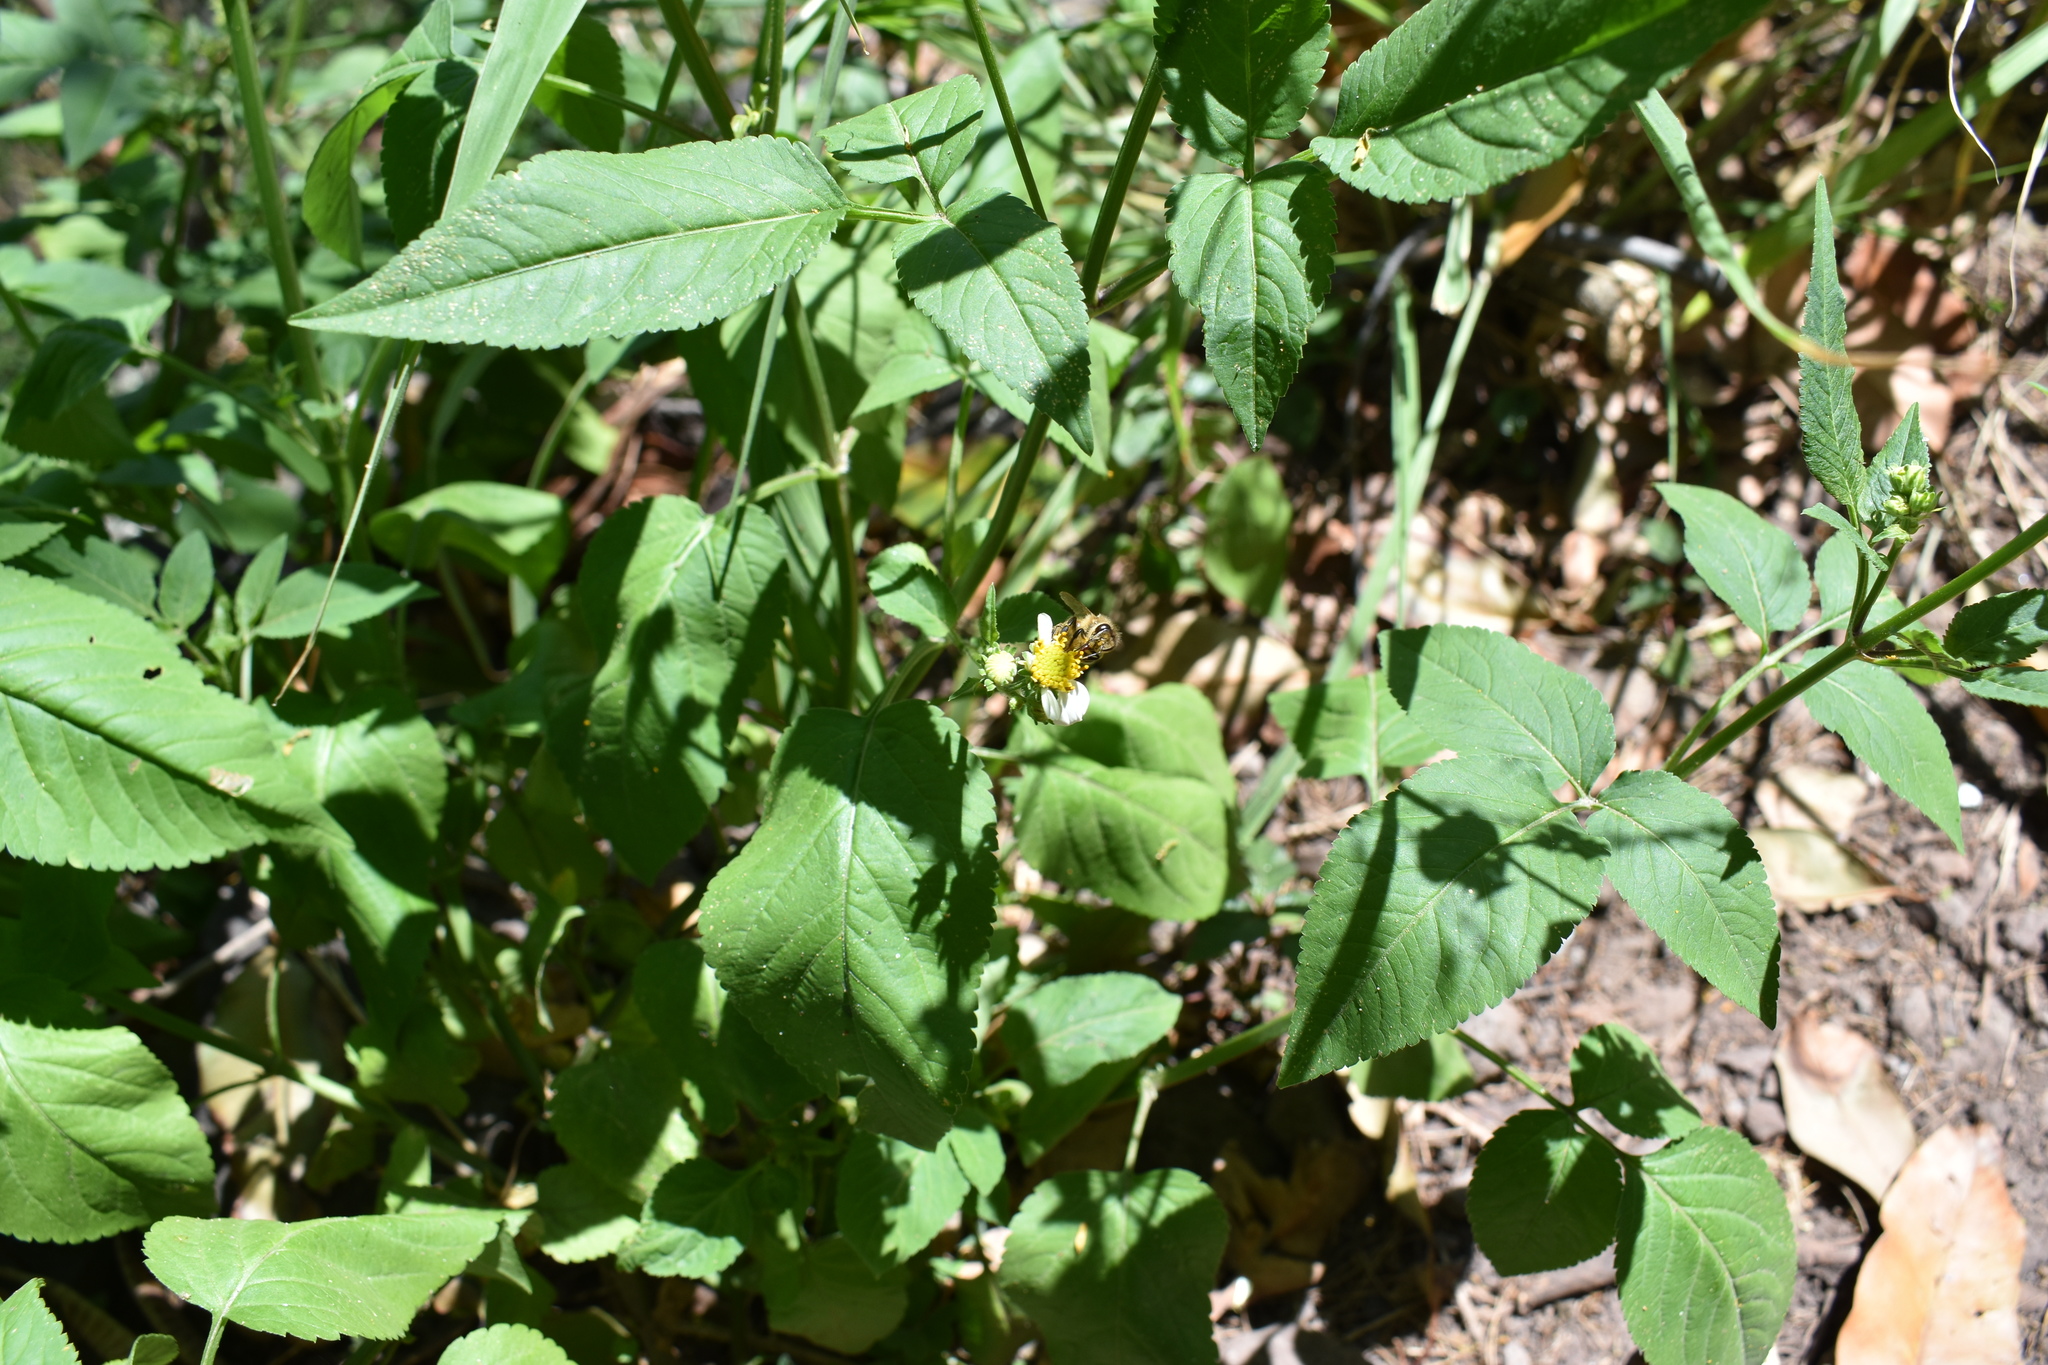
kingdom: Plantae
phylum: Tracheophyta
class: Magnoliopsida
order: Asterales
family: Asteraceae
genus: Bidens
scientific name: Bidens alba
